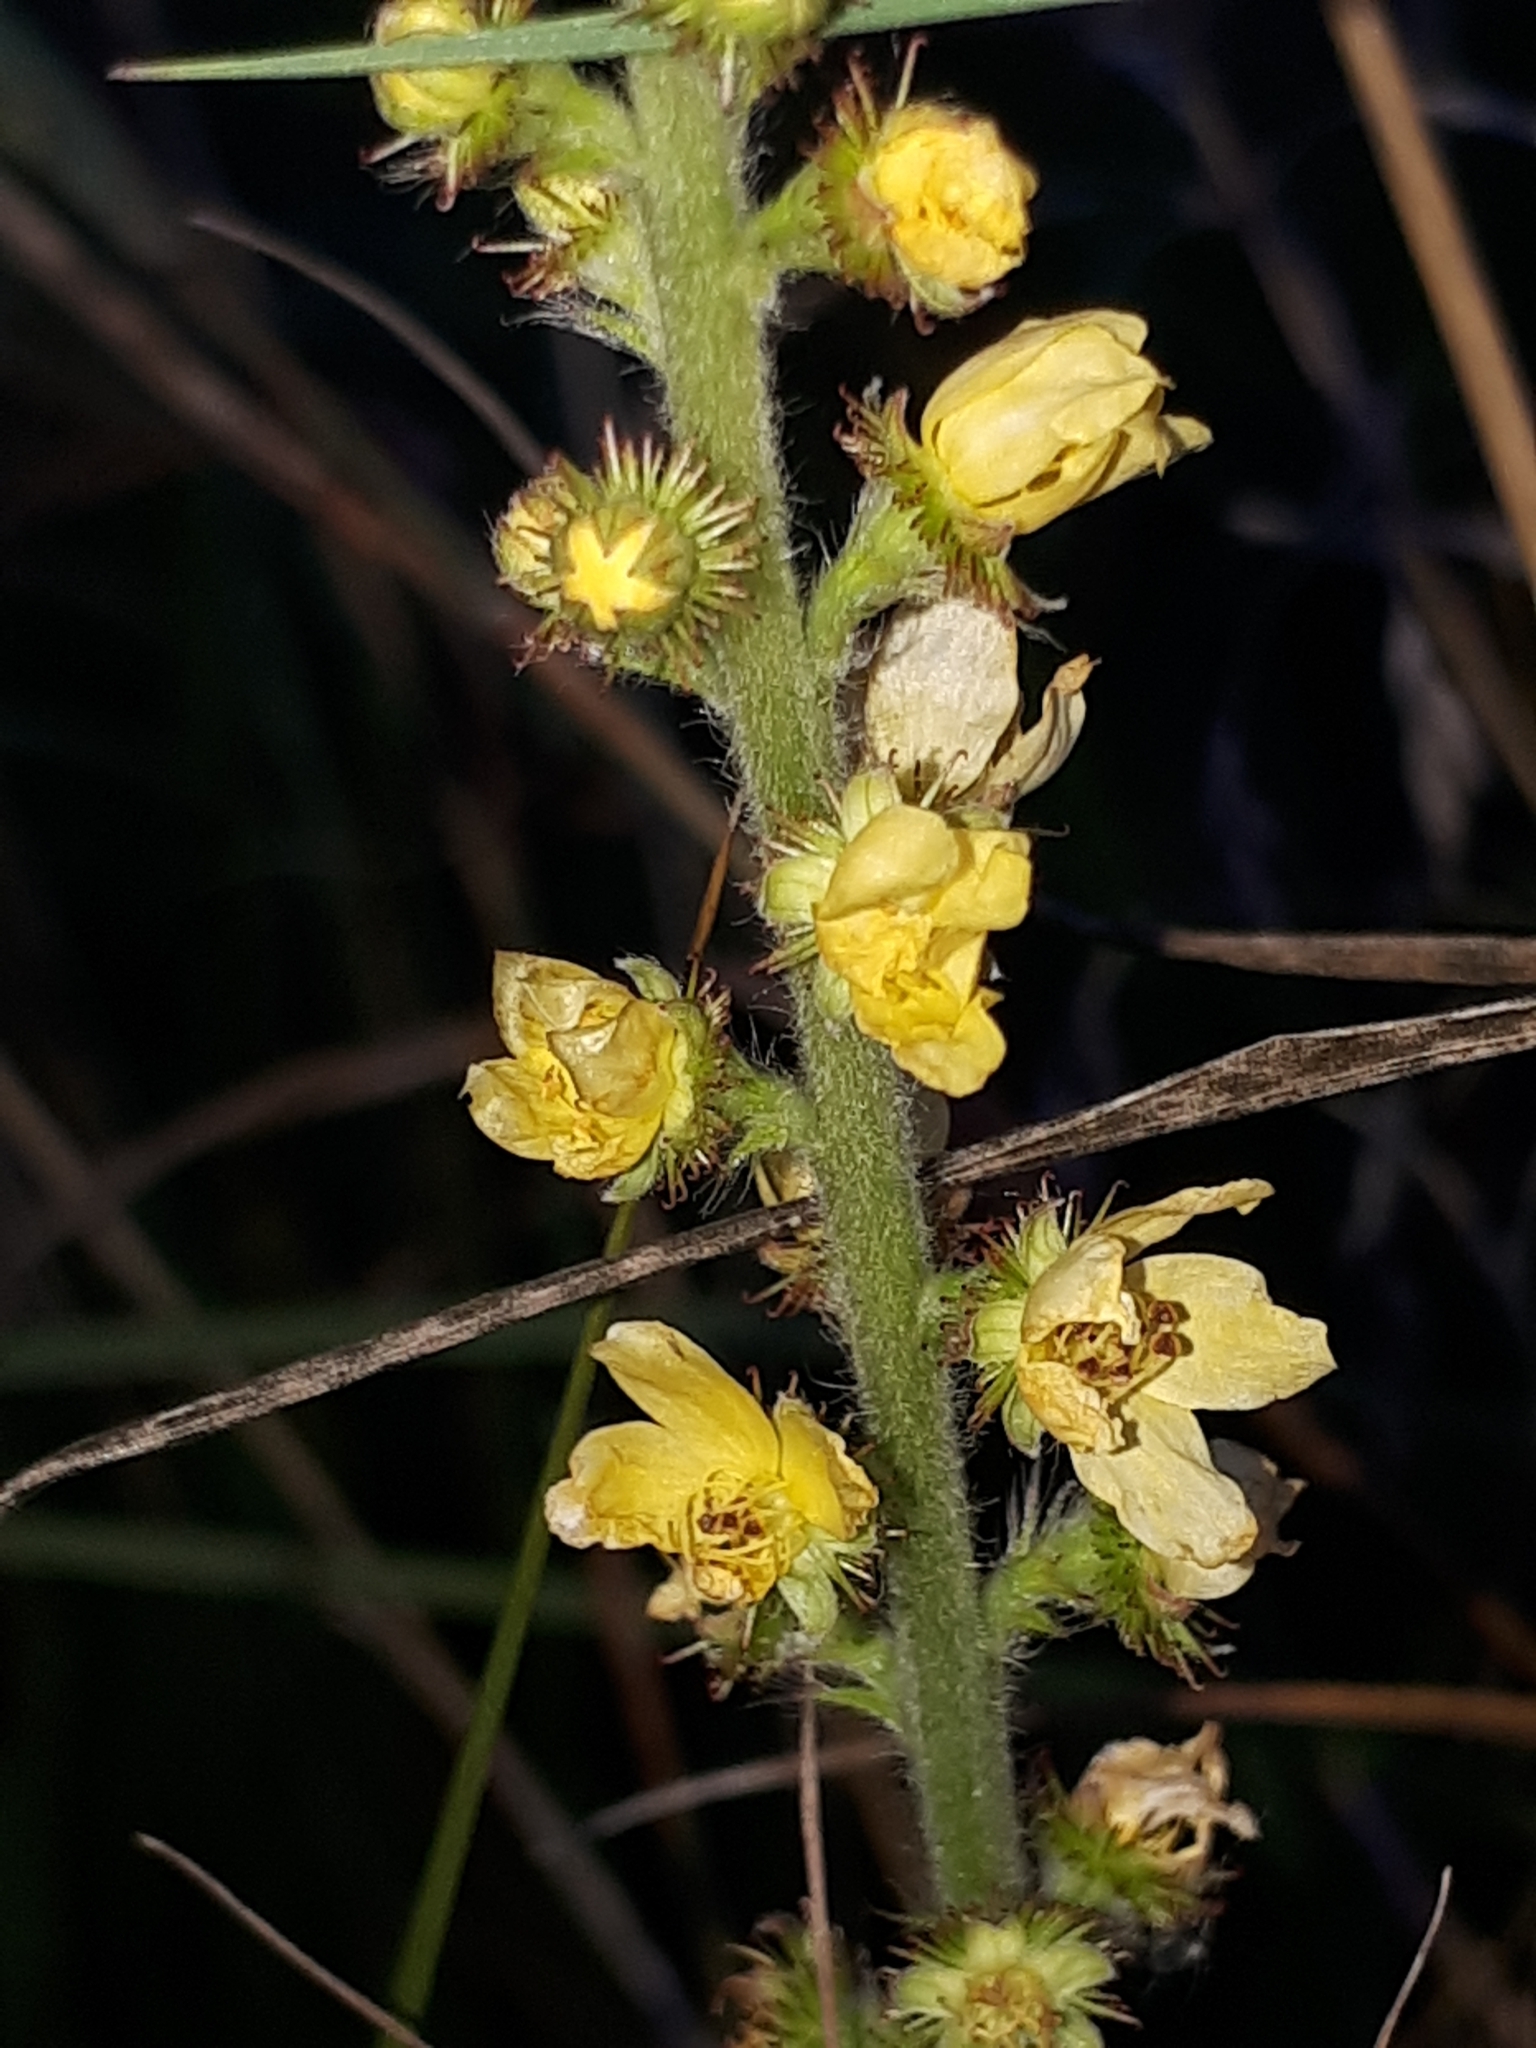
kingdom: Plantae
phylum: Tracheophyta
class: Magnoliopsida
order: Rosales
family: Rosaceae
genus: Agrimonia
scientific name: Agrimonia eupatoria
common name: Agrimony
